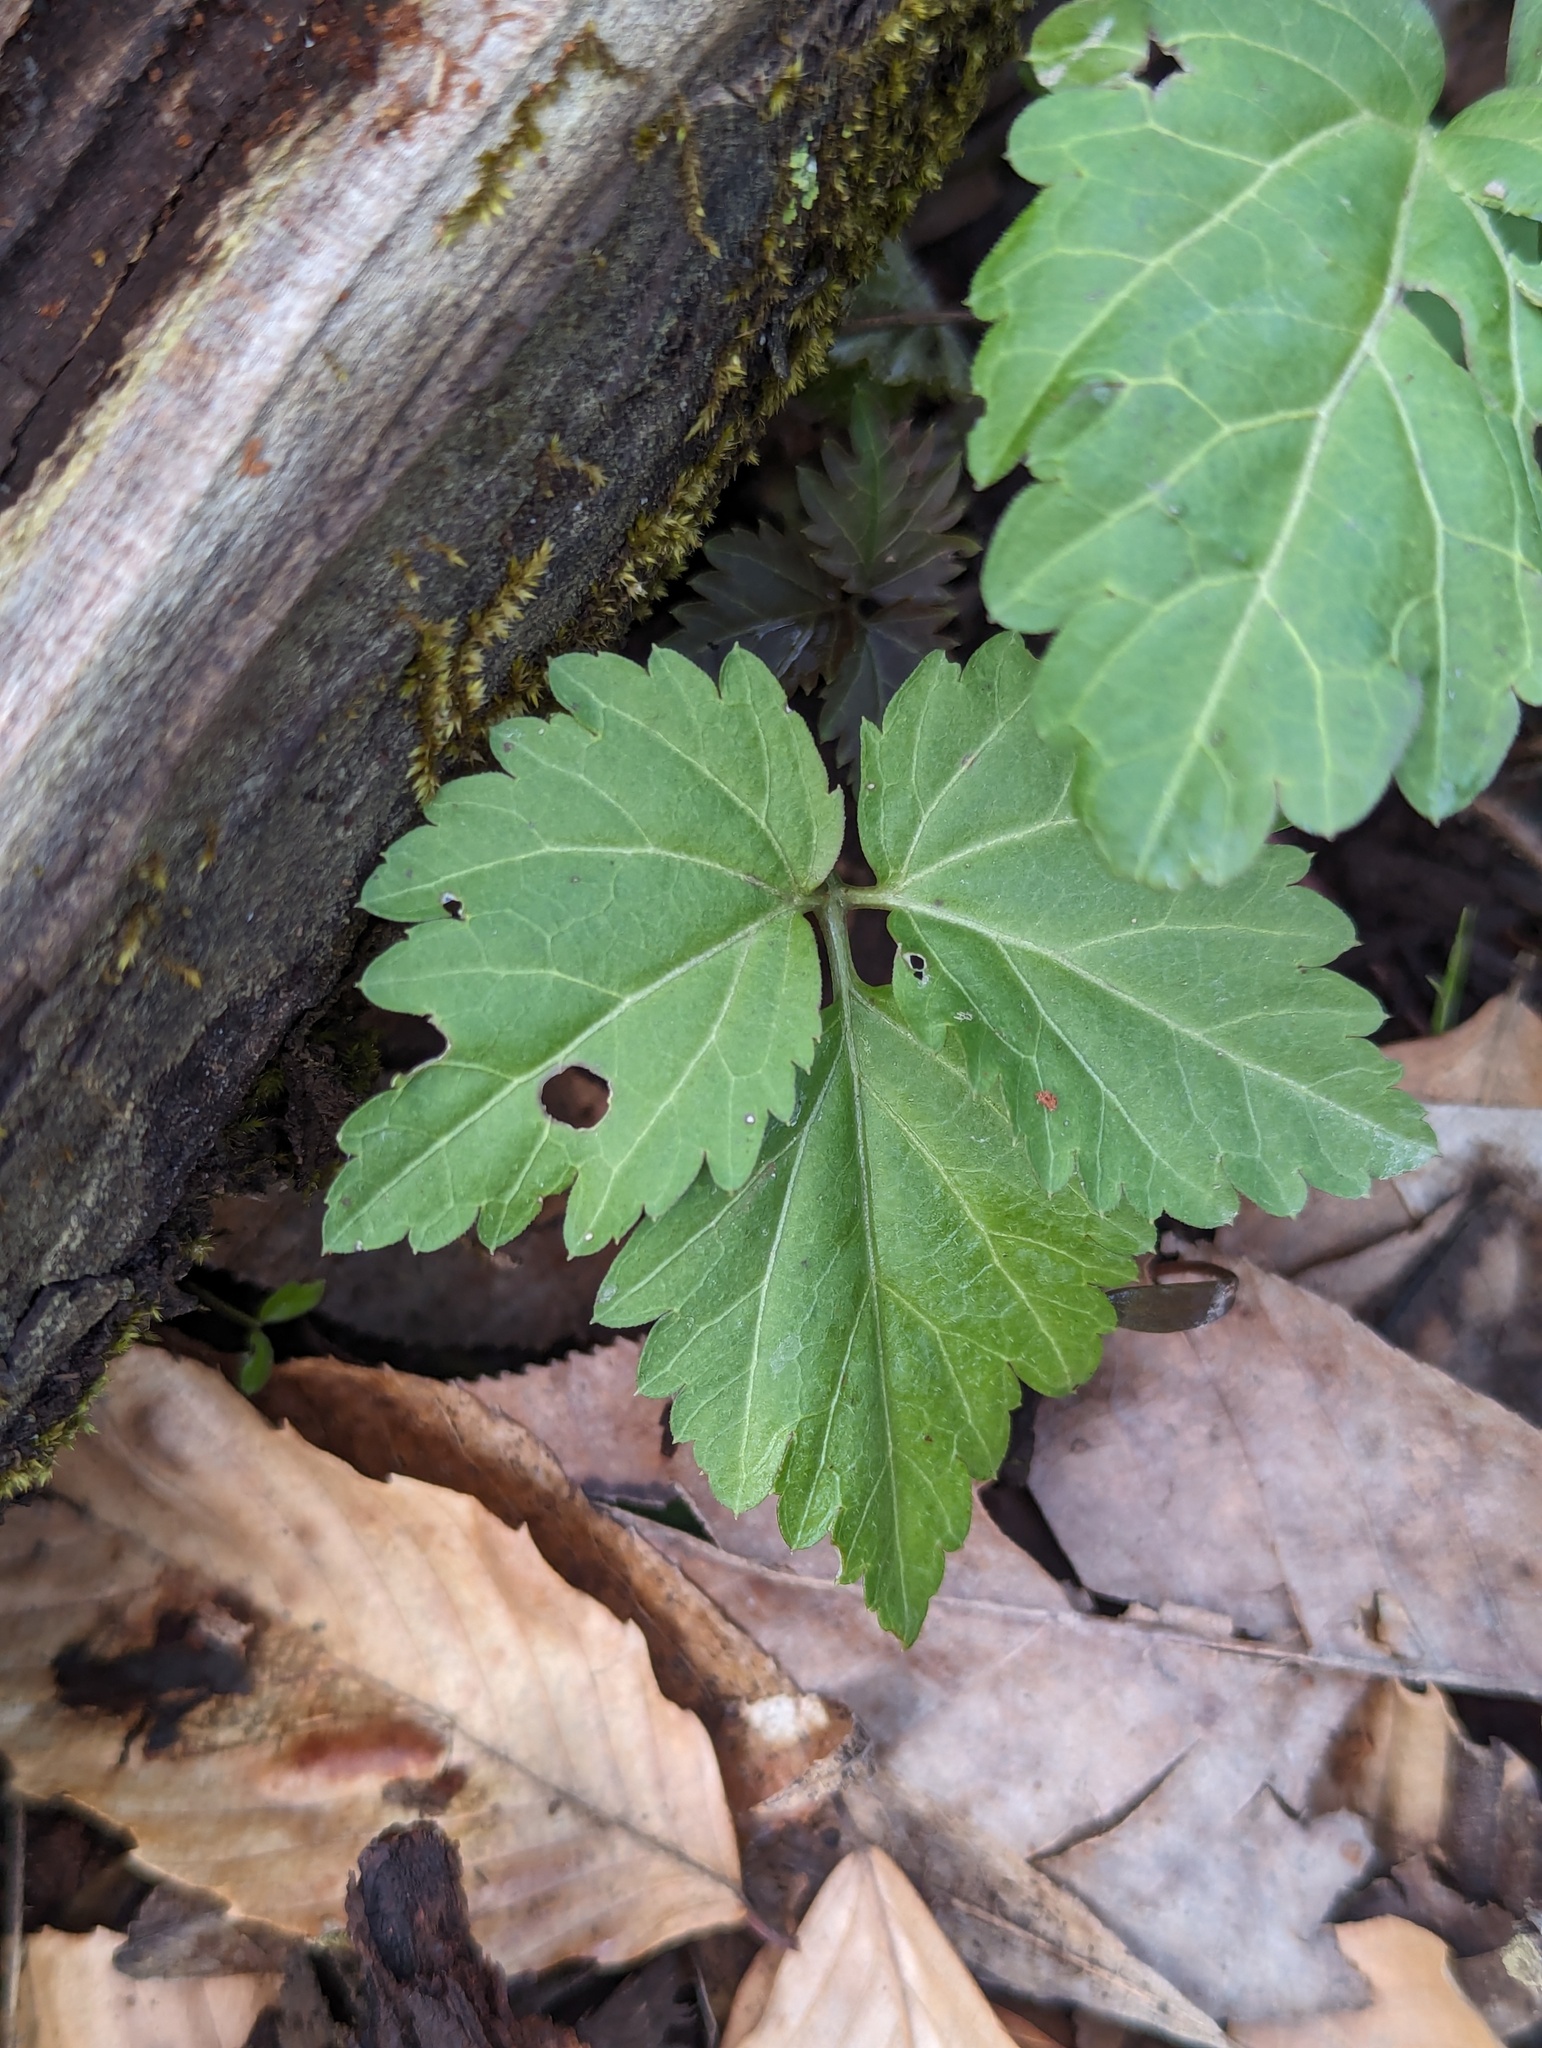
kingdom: Plantae
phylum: Tracheophyta
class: Magnoliopsida
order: Brassicales
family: Brassicaceae
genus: Cardamine
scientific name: Cardamine diphylla
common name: Broad-leaved toothwort
